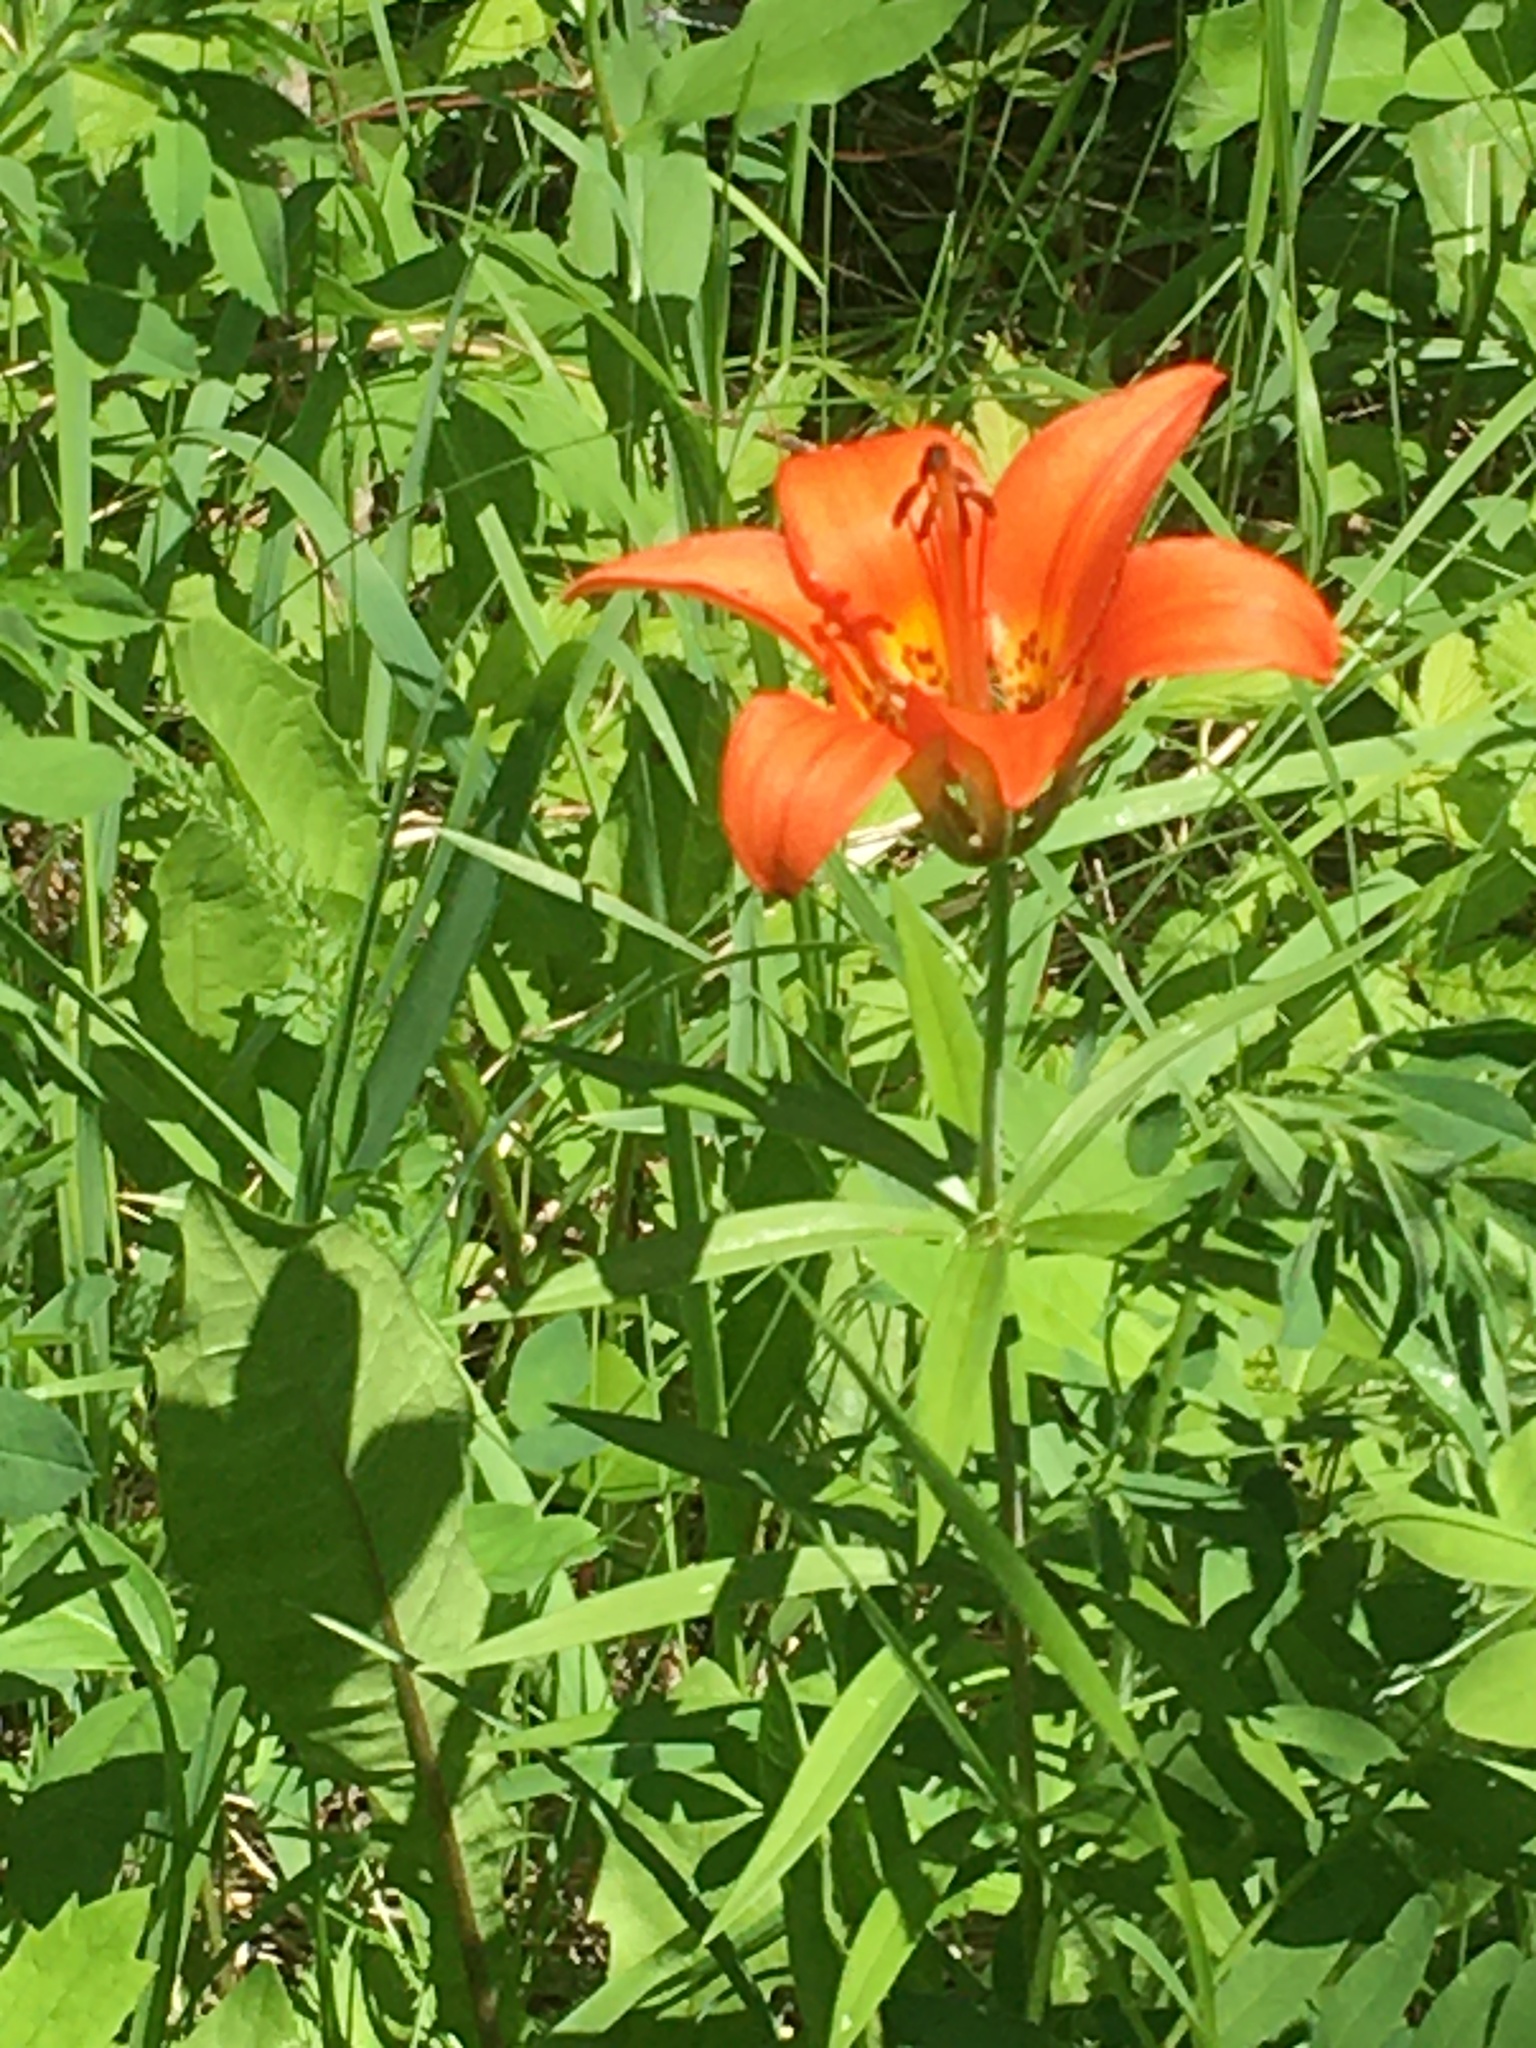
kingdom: Plantae
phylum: Tracheophyta
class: Liliopsida
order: Liliales
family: Liliaceae
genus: Lilium
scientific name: Lilium philadelphicum
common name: Red lily
